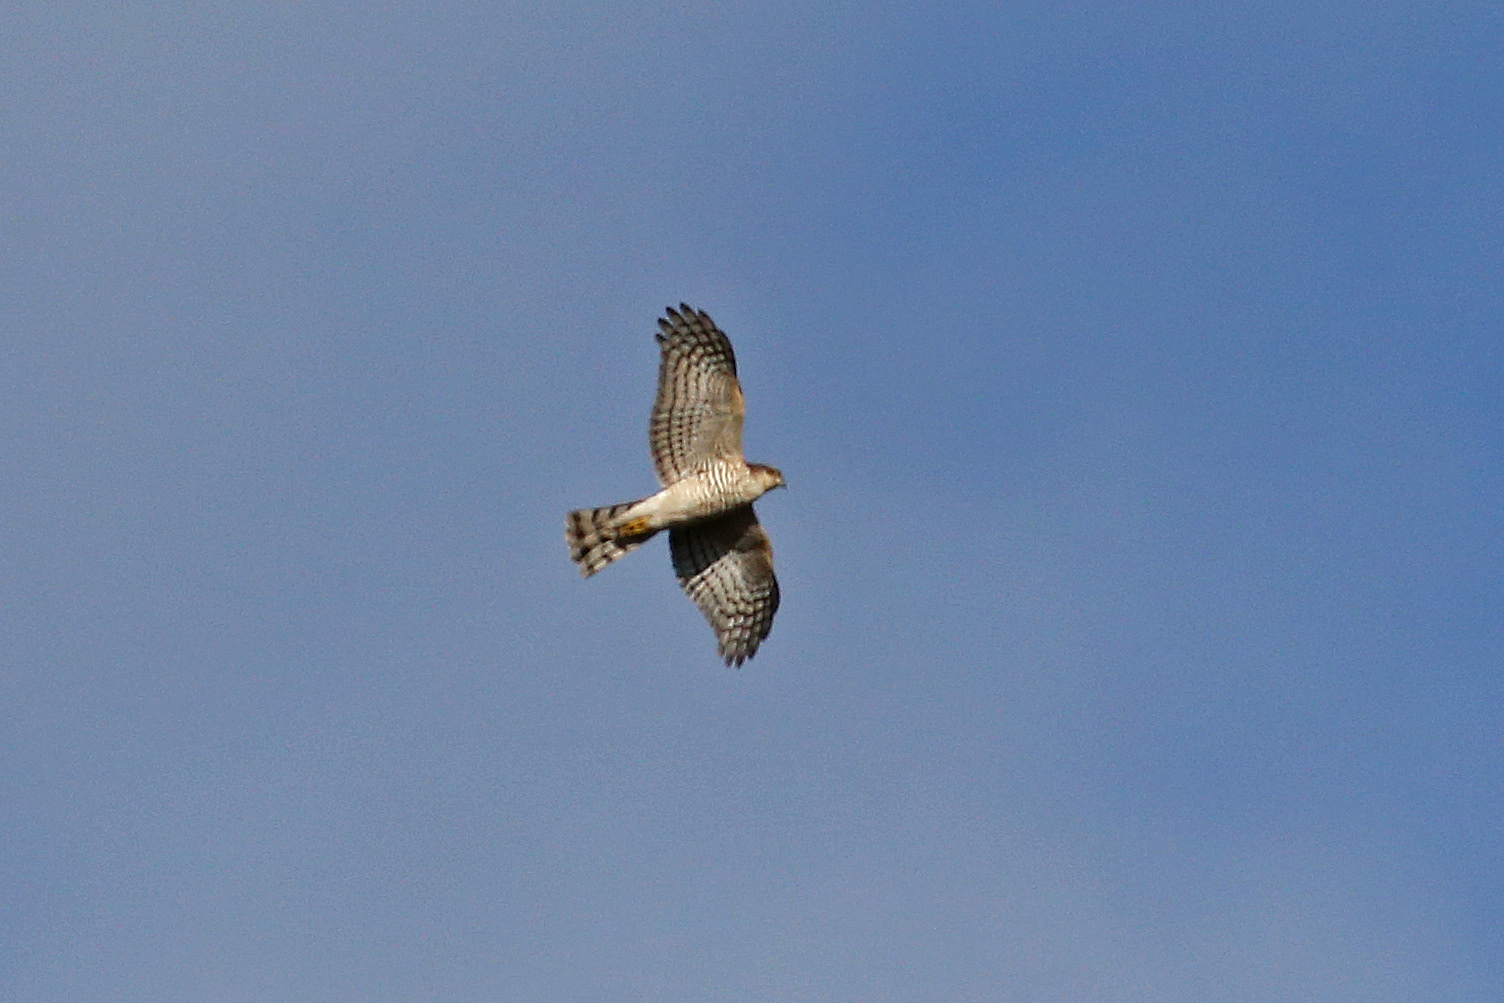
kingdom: Animalia
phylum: Chordata
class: Aves
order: Accipitriformes
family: Accipitridae
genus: Accipiter
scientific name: Accipiter nisus
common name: Eurasian sparrowhawk
